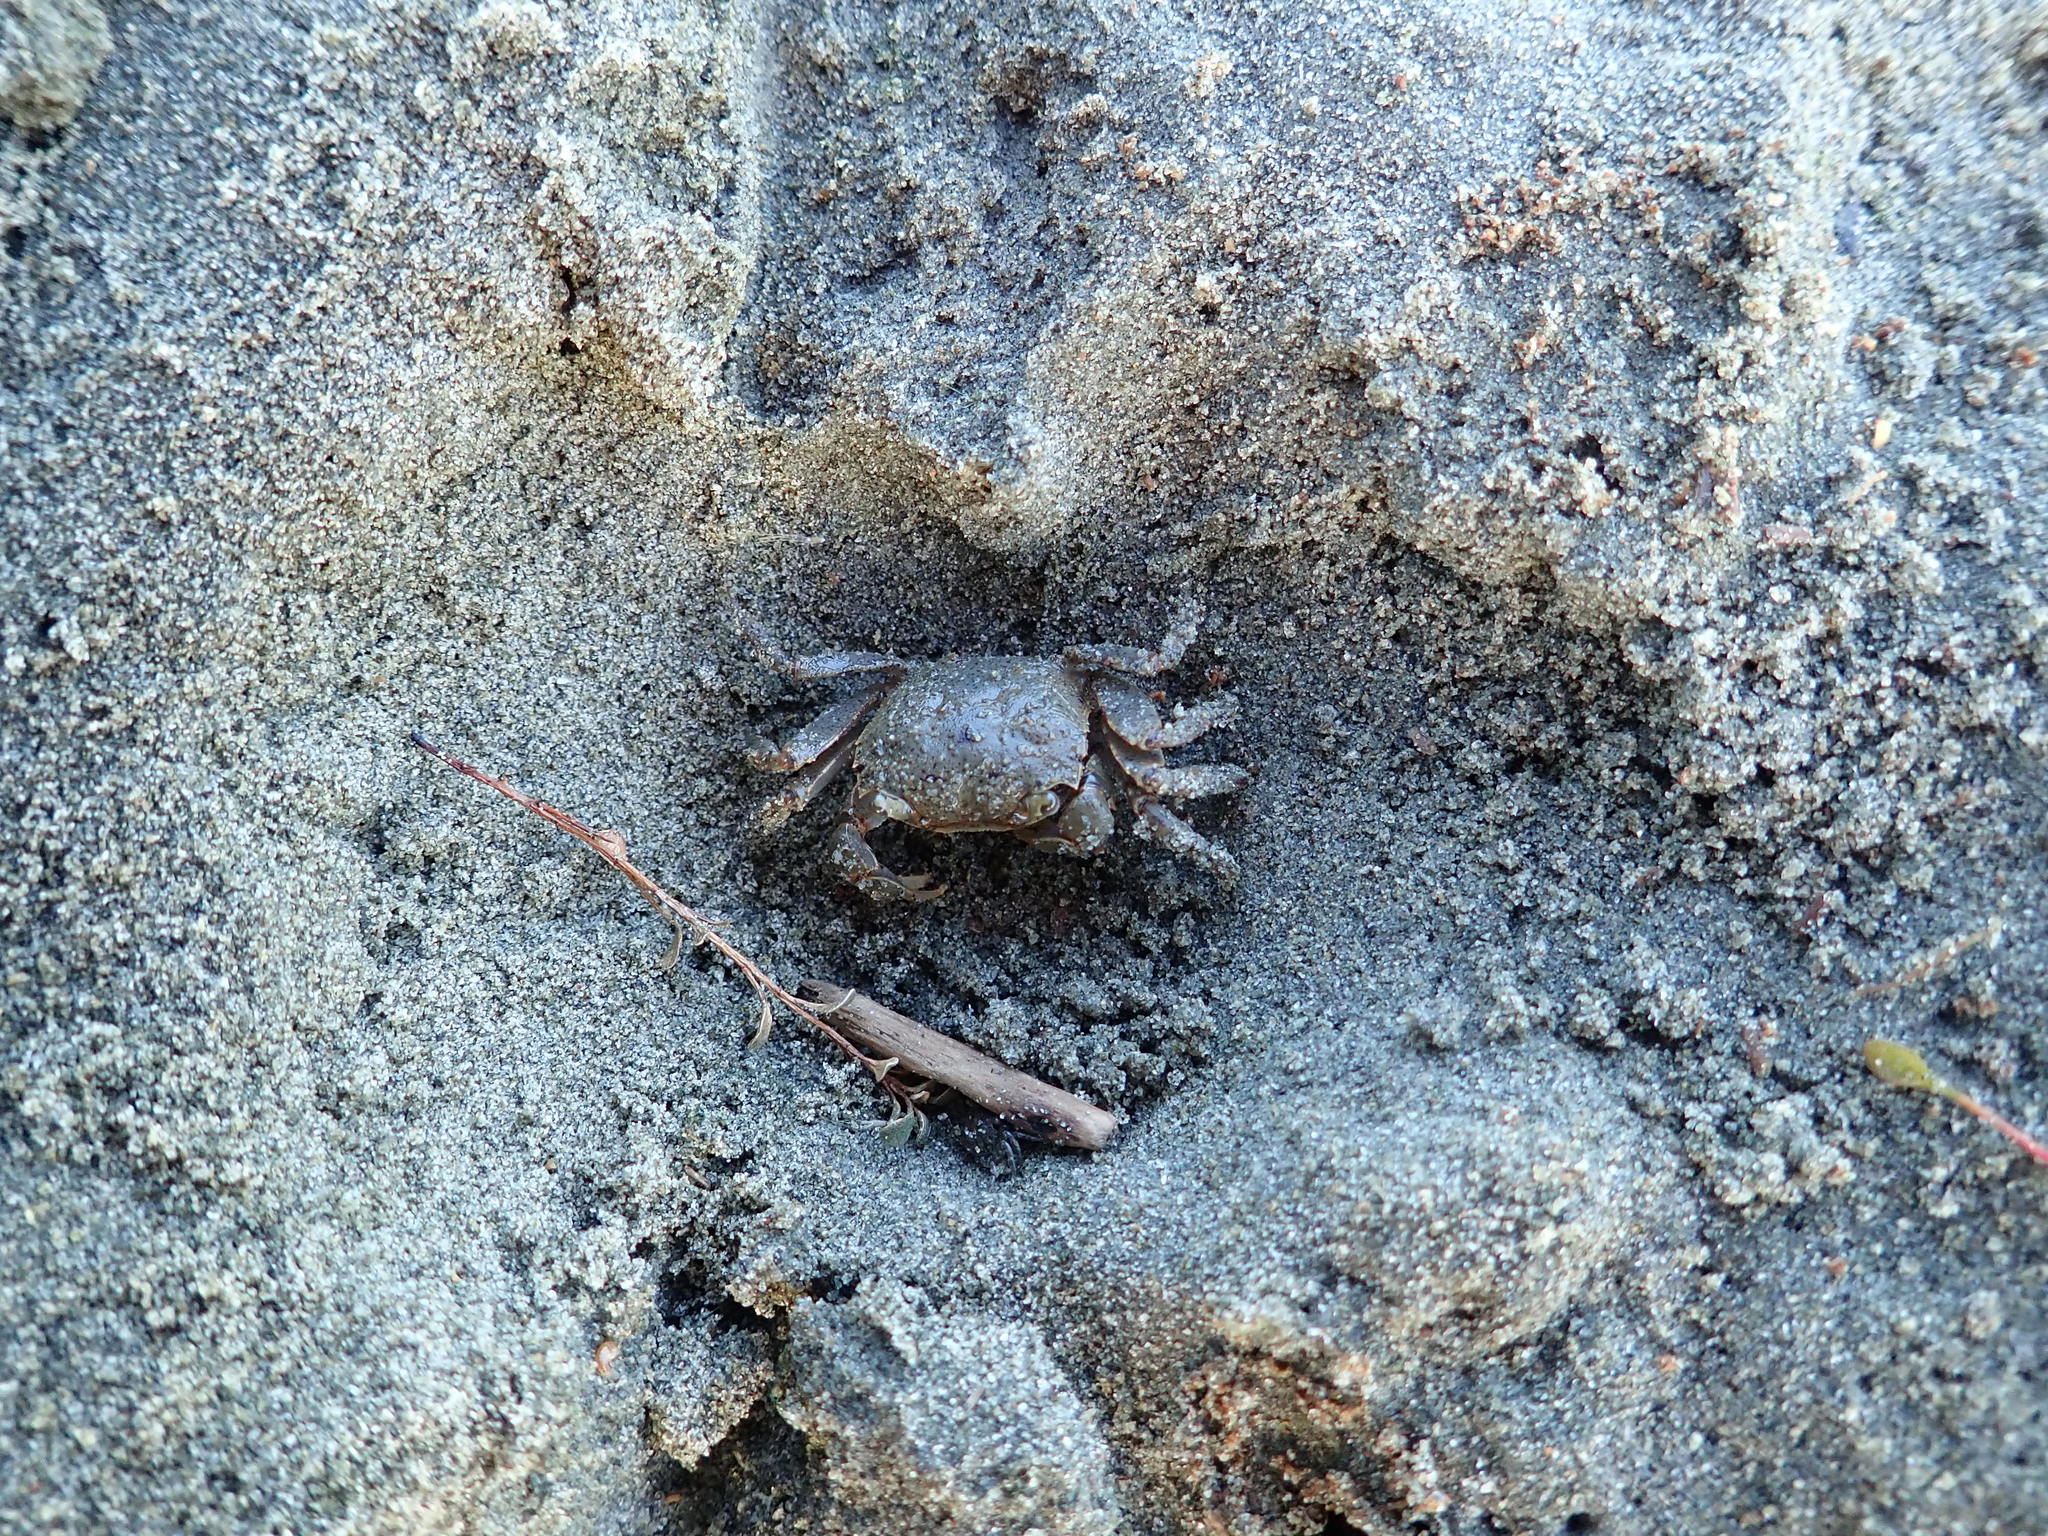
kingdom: Animalia
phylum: Arthropoda
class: Malacostraca
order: Decapoda
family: Varunidae
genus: Austrohelice
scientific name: Austrohelice crassa
